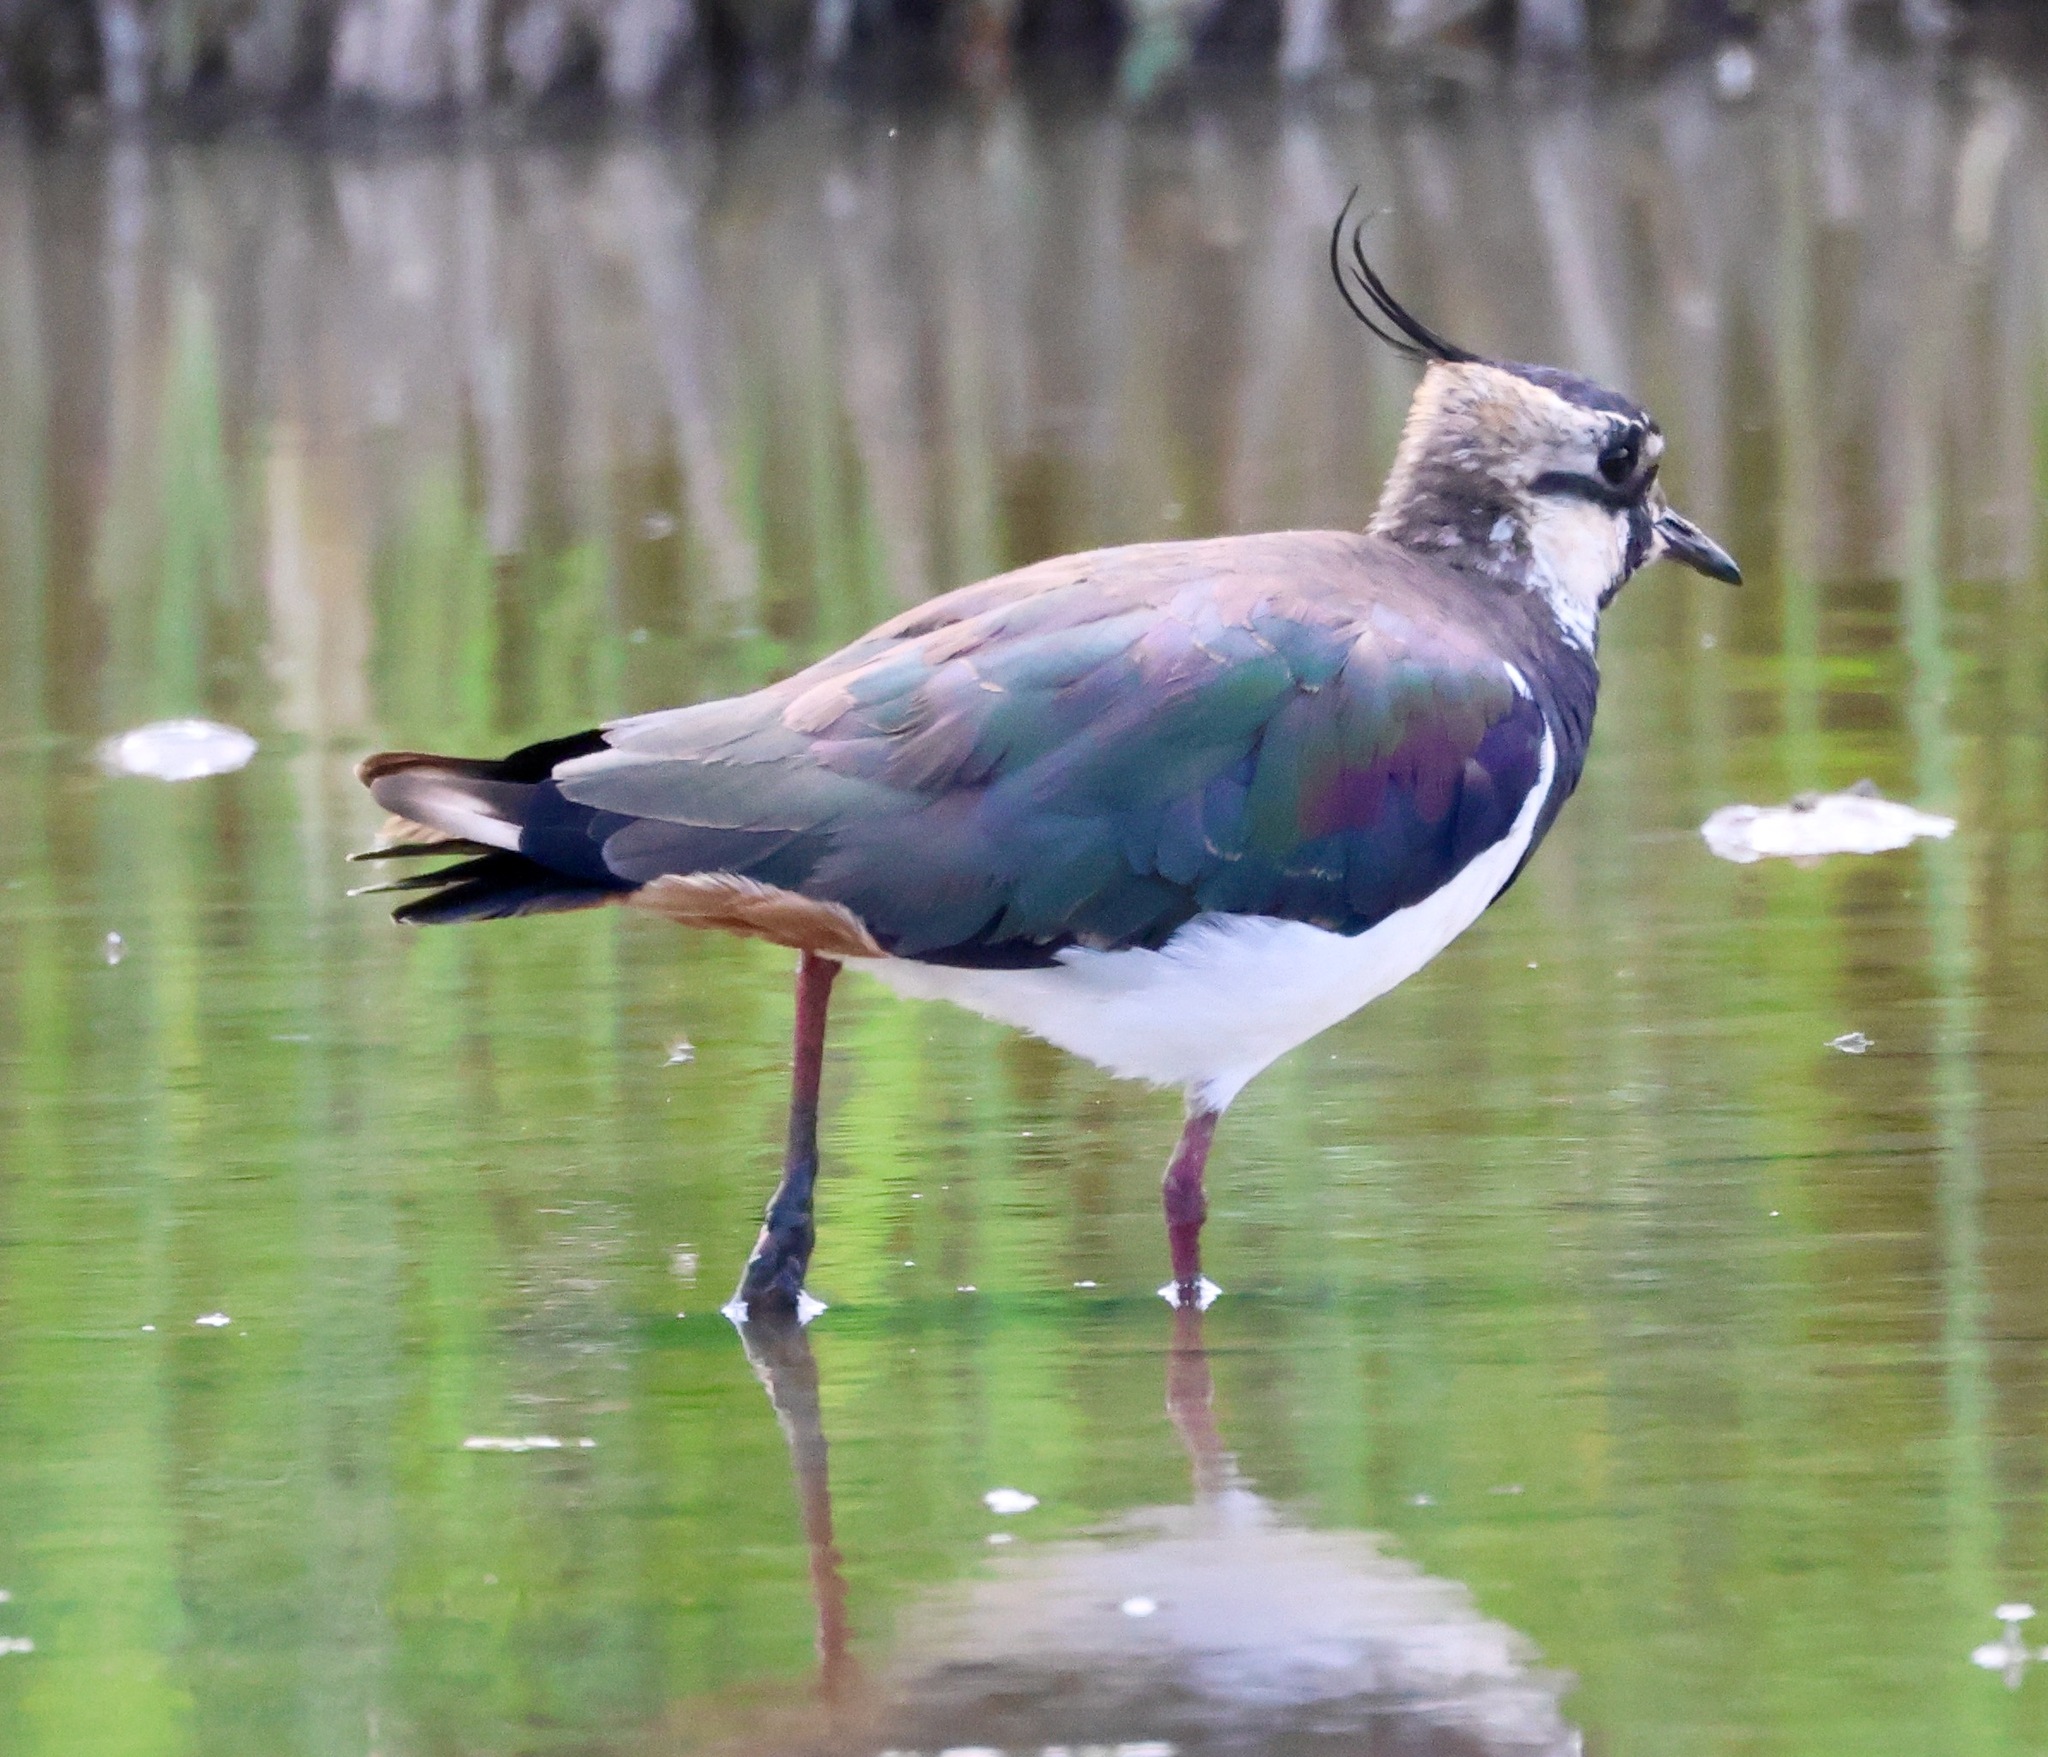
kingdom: Animalia
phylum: Chordata
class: Aves
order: Charadriiformes
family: Charadriidae
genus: Vanellus
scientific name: Vanellus vanellus
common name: Northern lapwing
